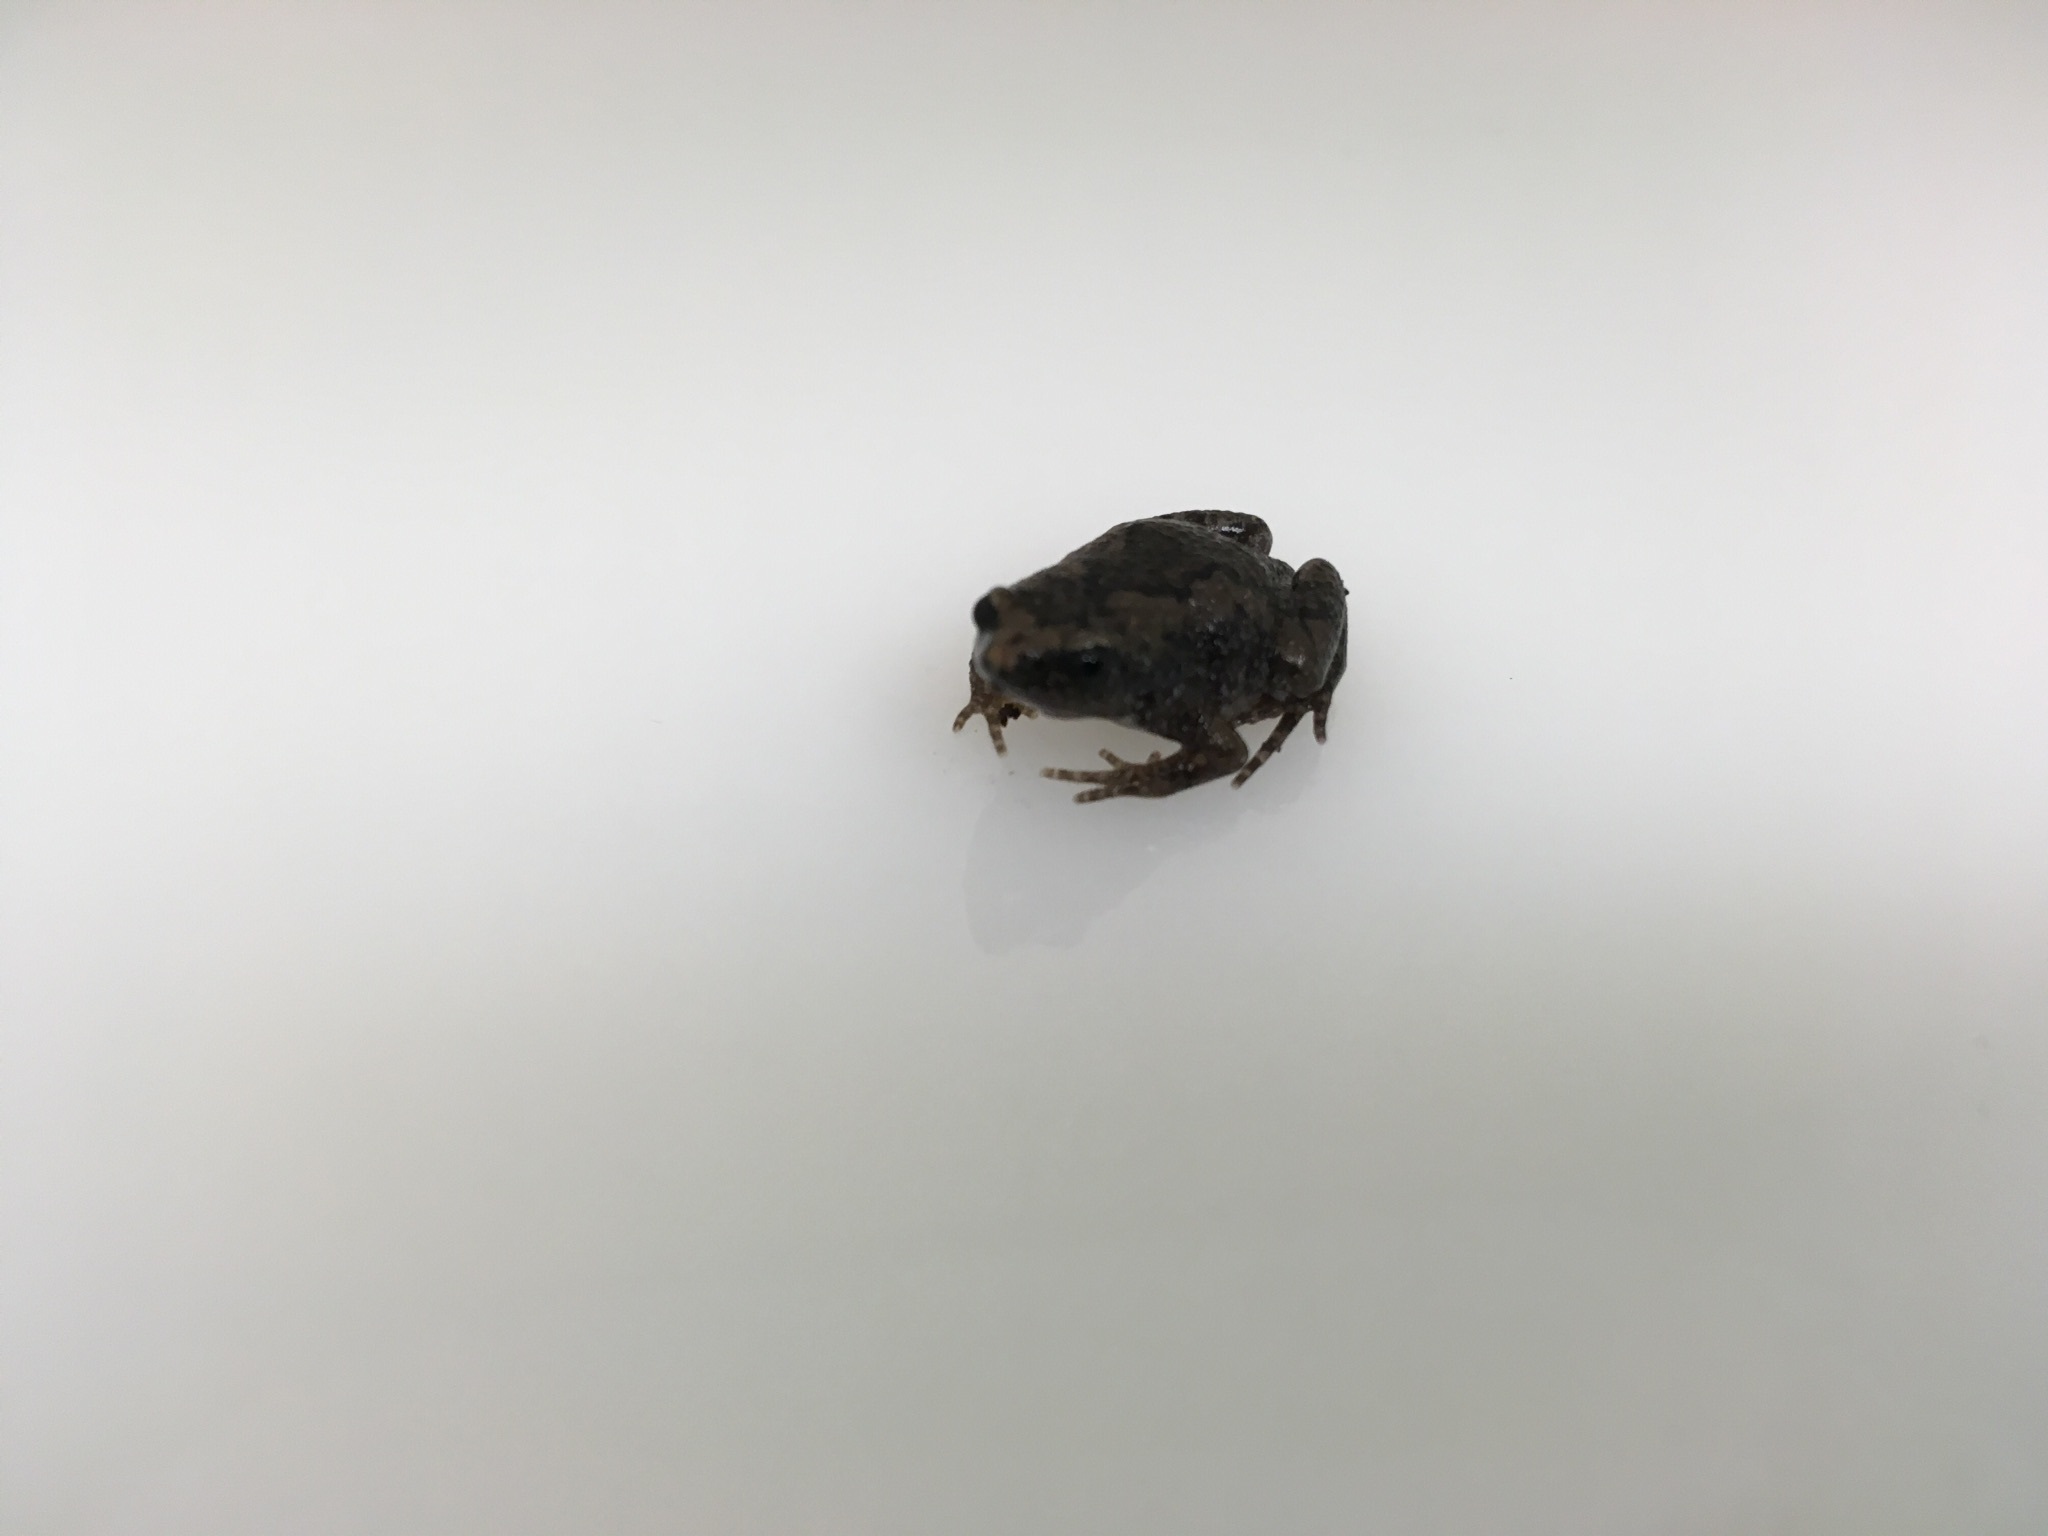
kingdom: Animalia
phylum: Chordata
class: Amphibia
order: Anura
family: Microhylidae
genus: Gastrophryne
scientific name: Gastrophryne carolinensis
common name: Eastern narrowmouth toad
